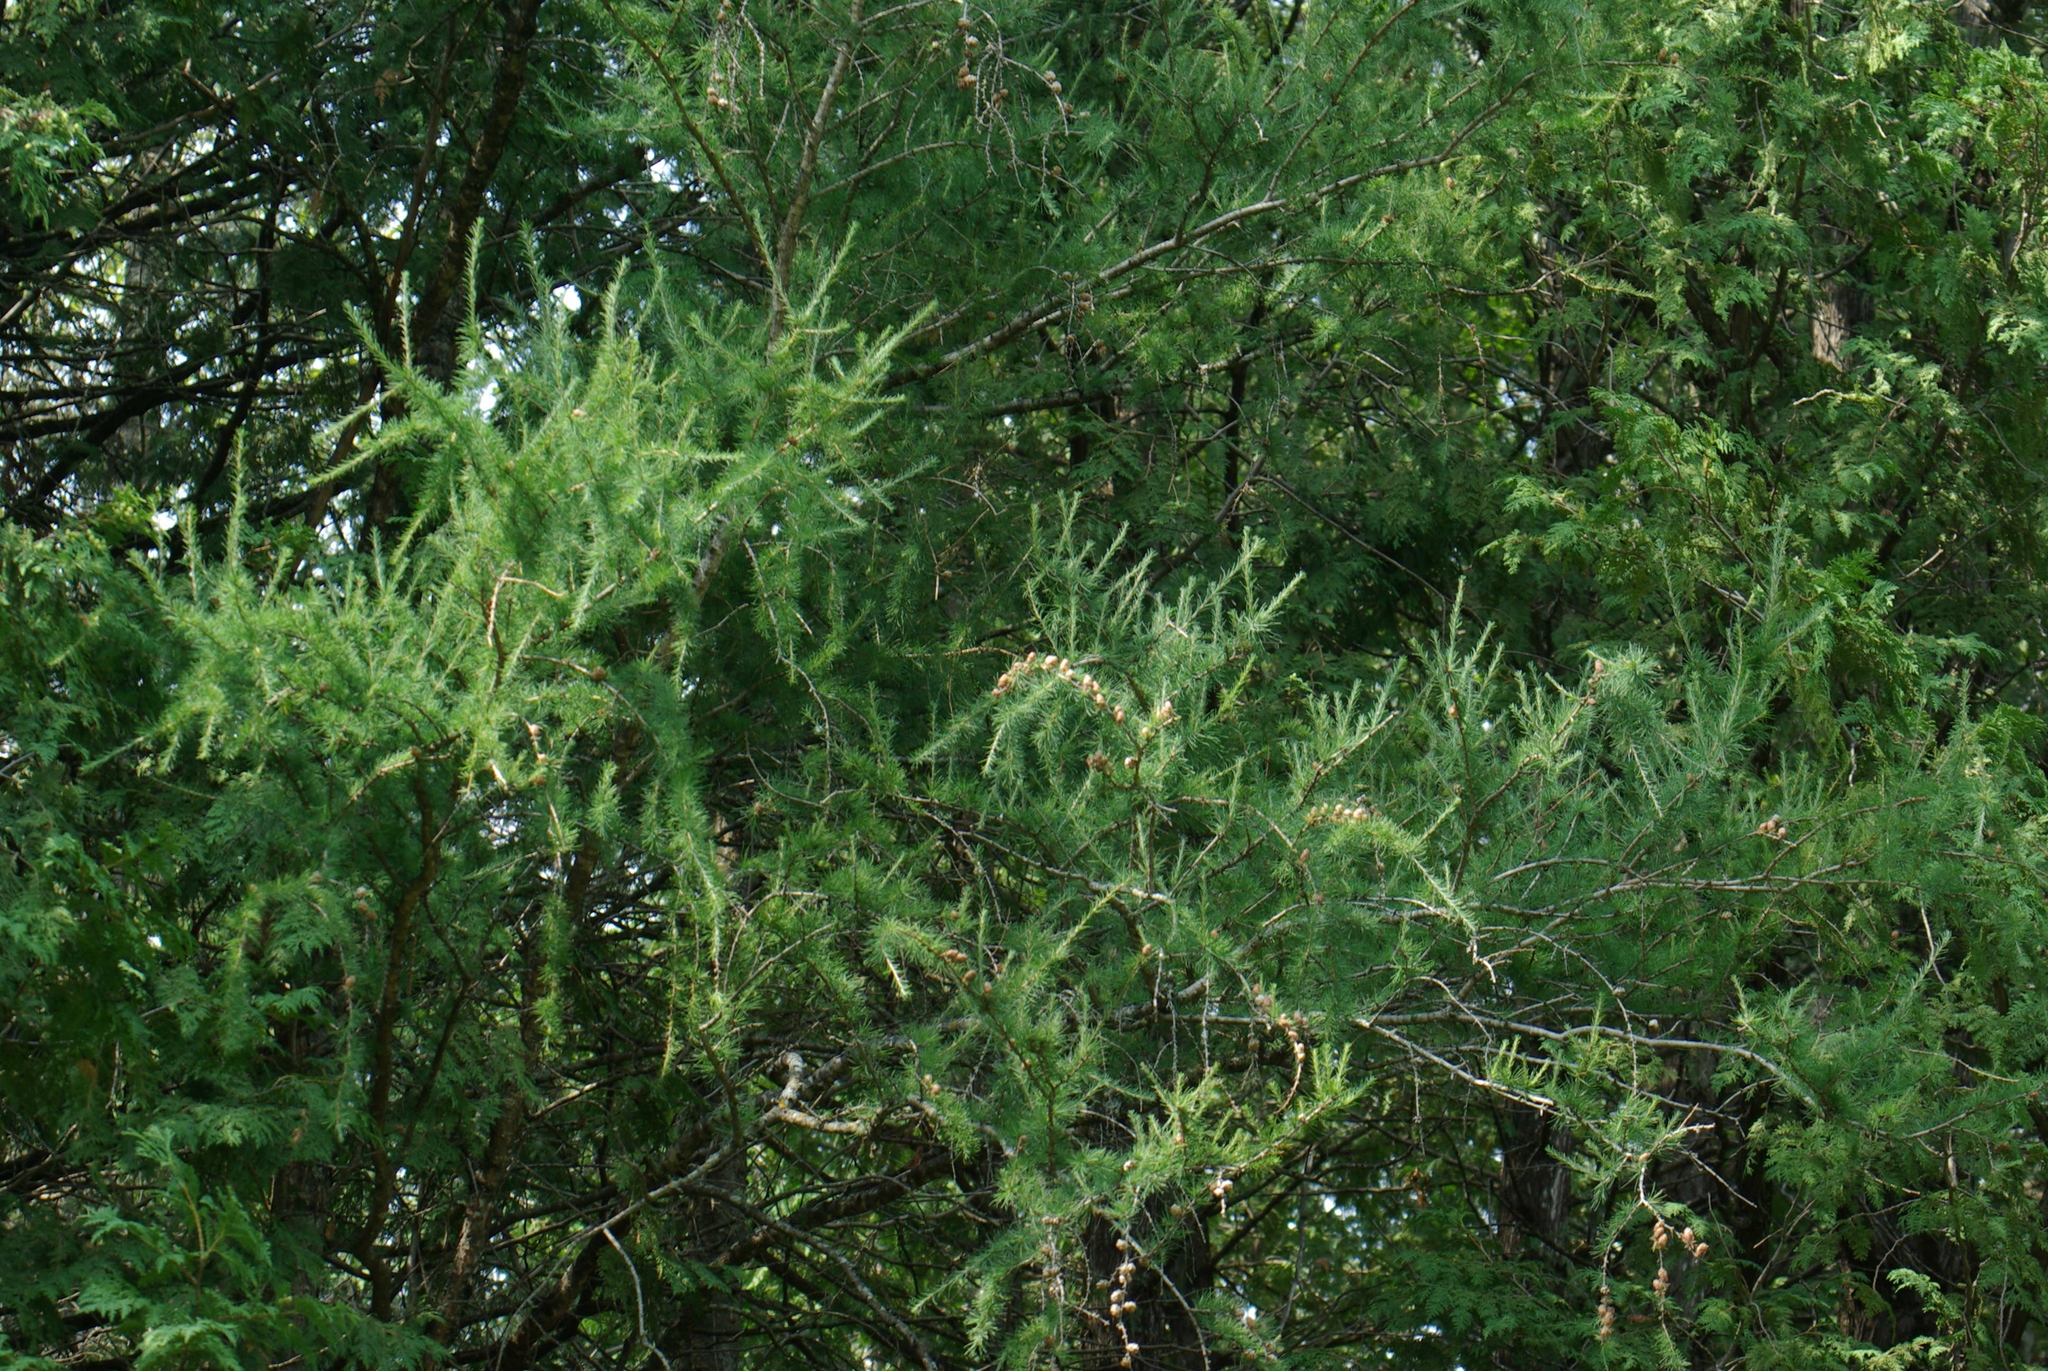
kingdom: Plantae
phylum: Tracheophyta
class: Pinopsida
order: Pinales
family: Pinaceae
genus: Larix
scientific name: Larix laricina
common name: American larch
